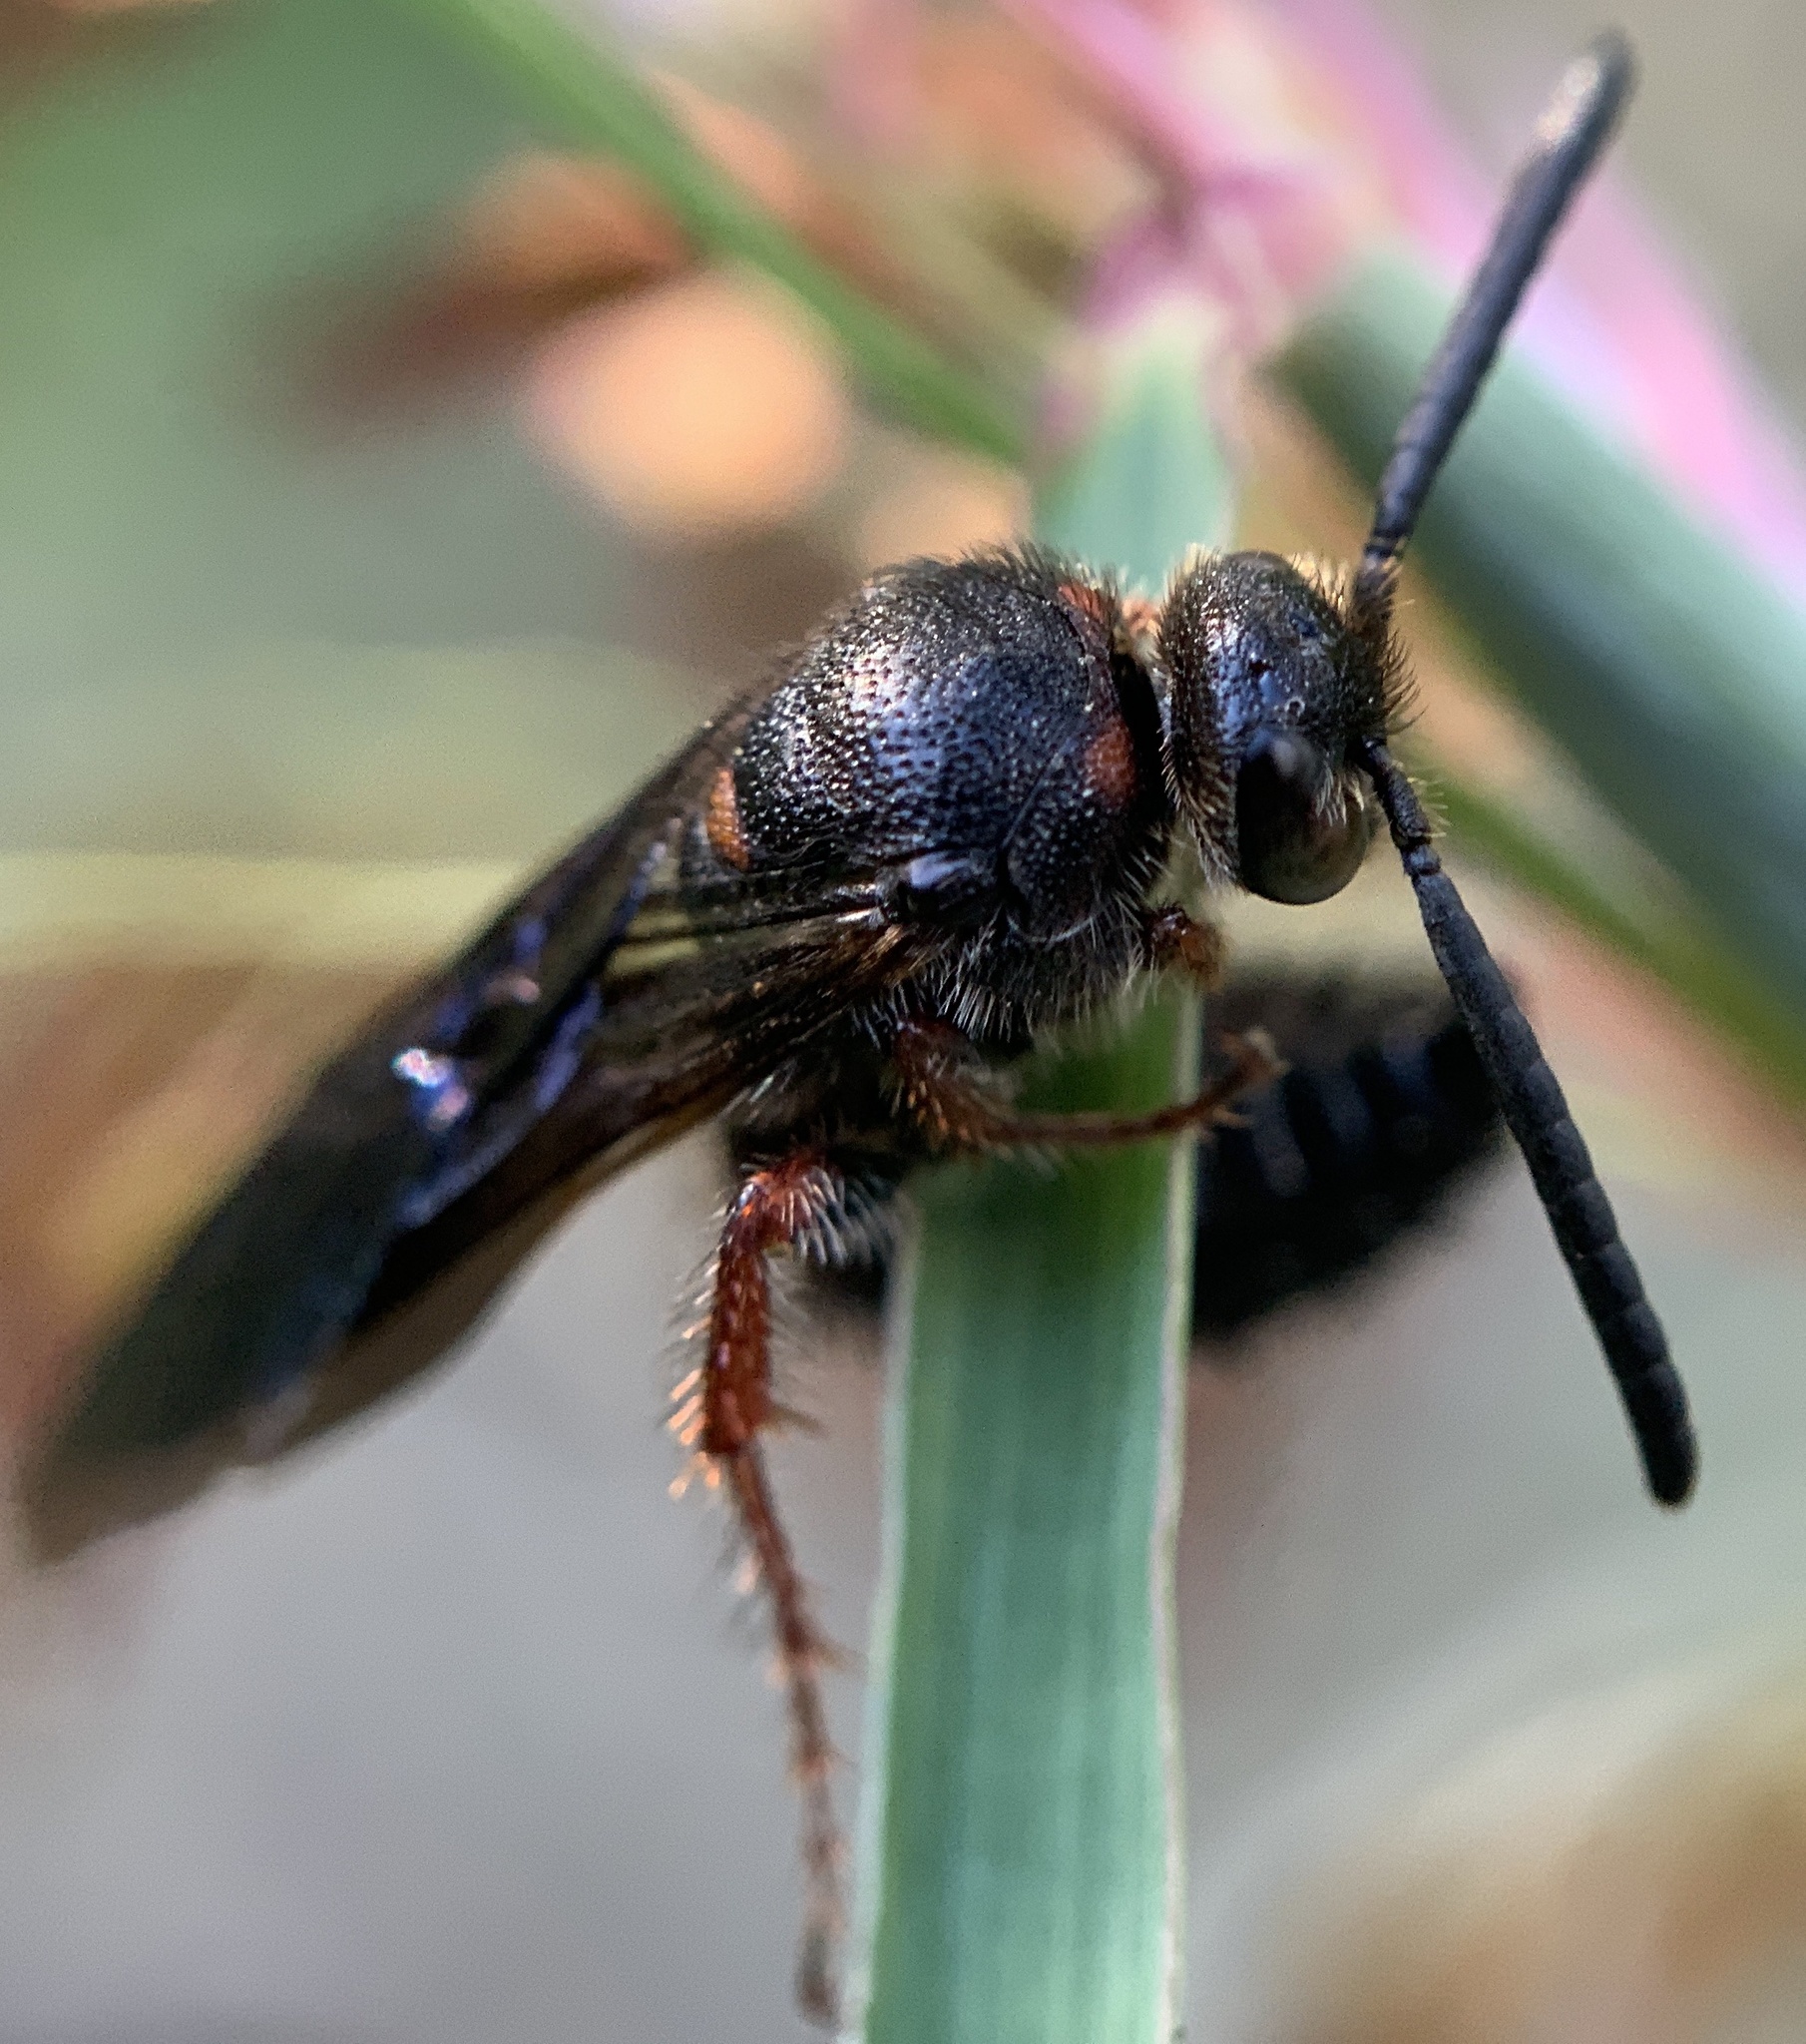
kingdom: Animalia
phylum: Arthropoda
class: Insecta
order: Hymenoptera
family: Scoliidae
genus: Scolia
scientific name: Scolia nobilitata
